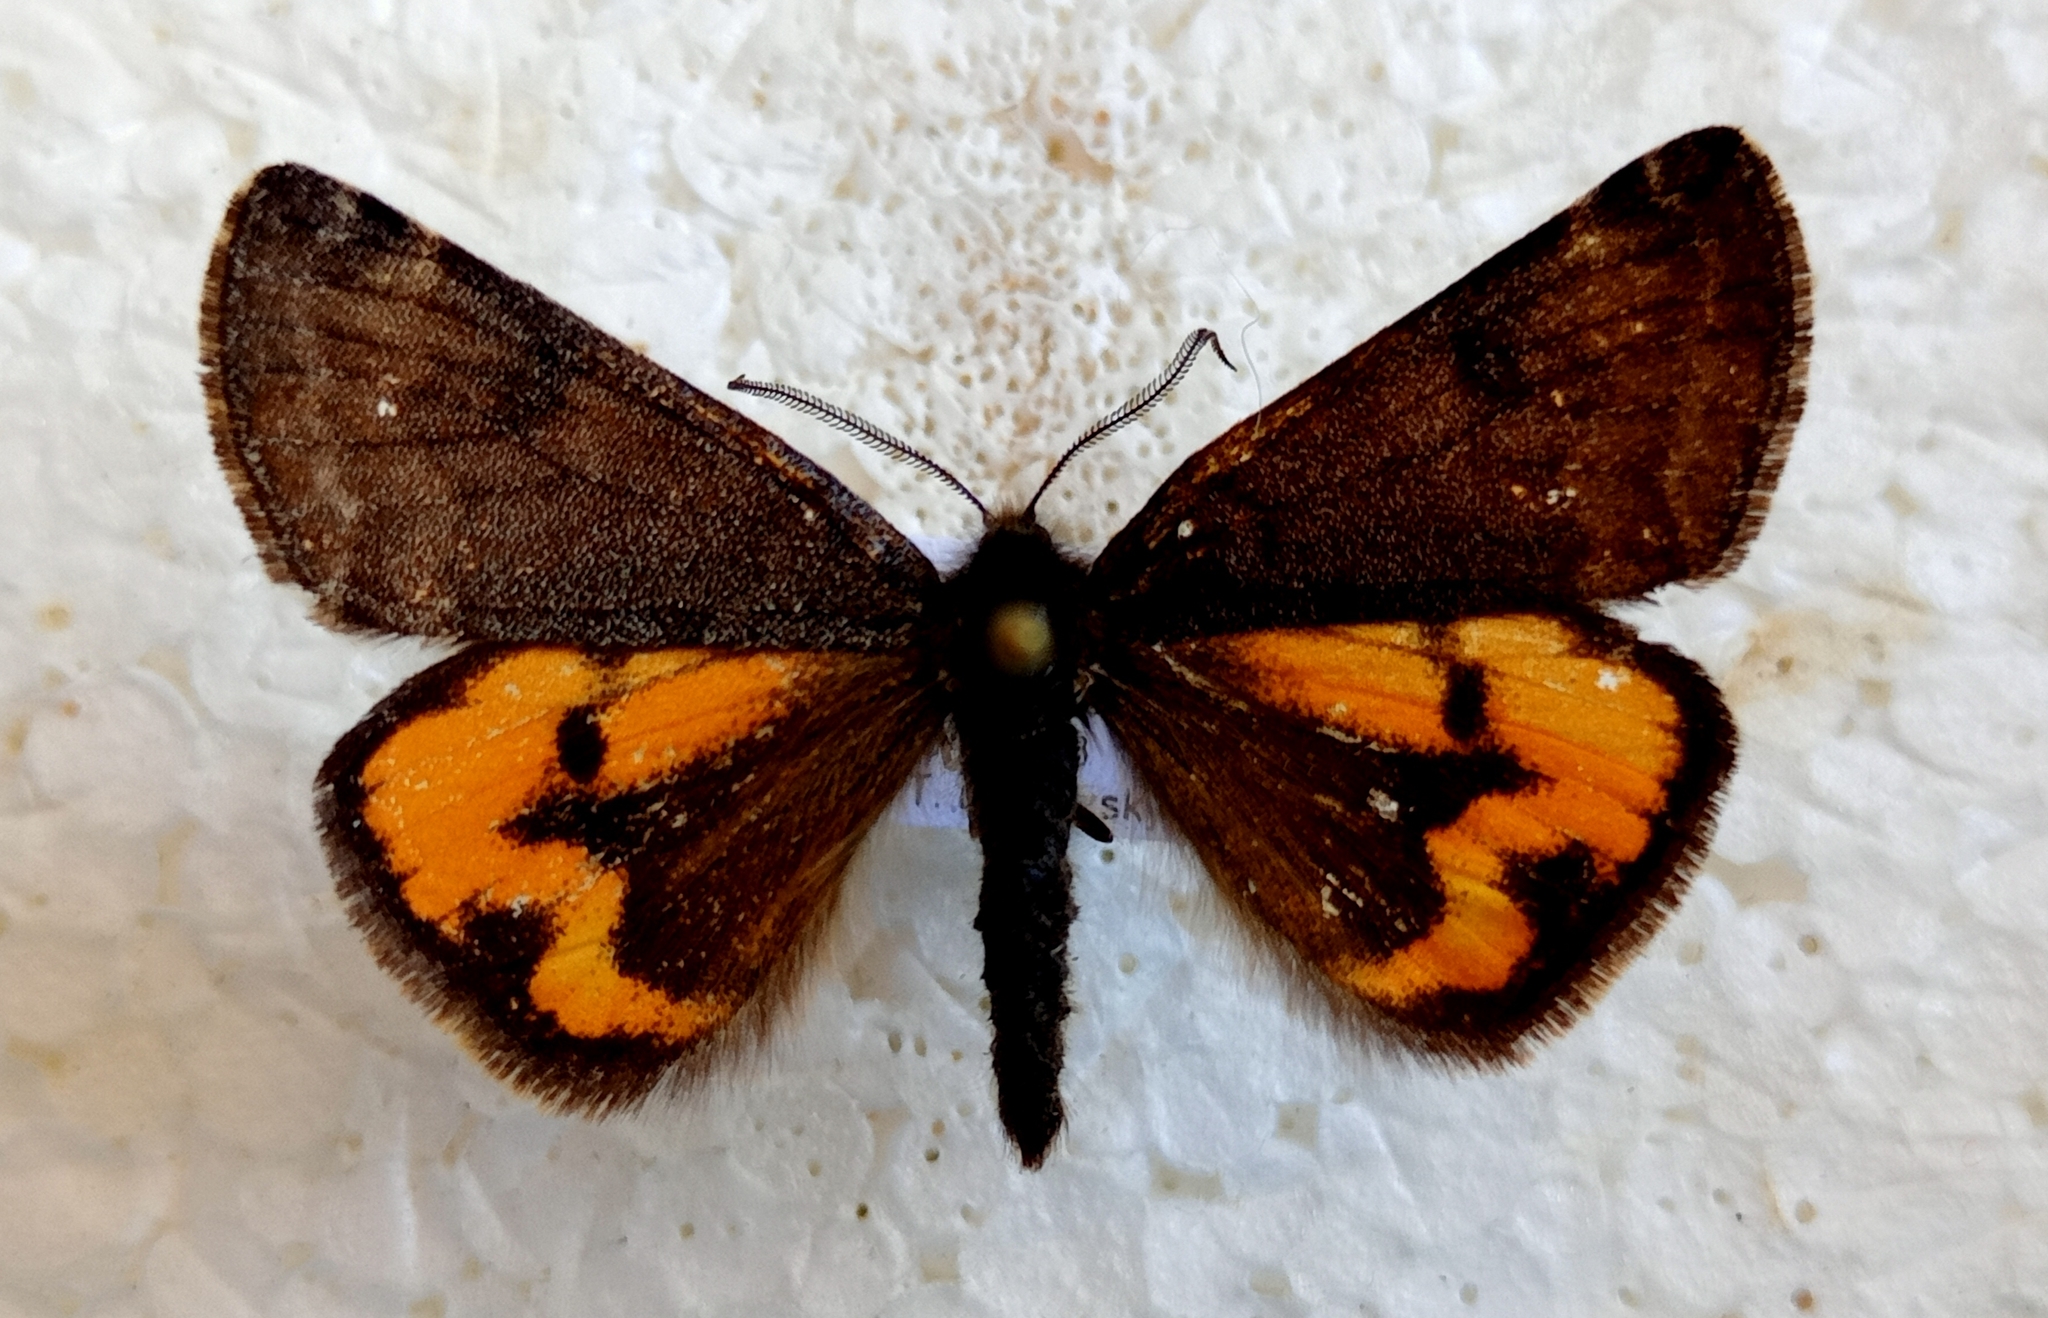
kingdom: Animalia
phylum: Arthropoda
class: Insecta
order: Lepidoptera
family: Geometridae
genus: Archiearis
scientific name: Archiearis notha
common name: Light orange underwing
